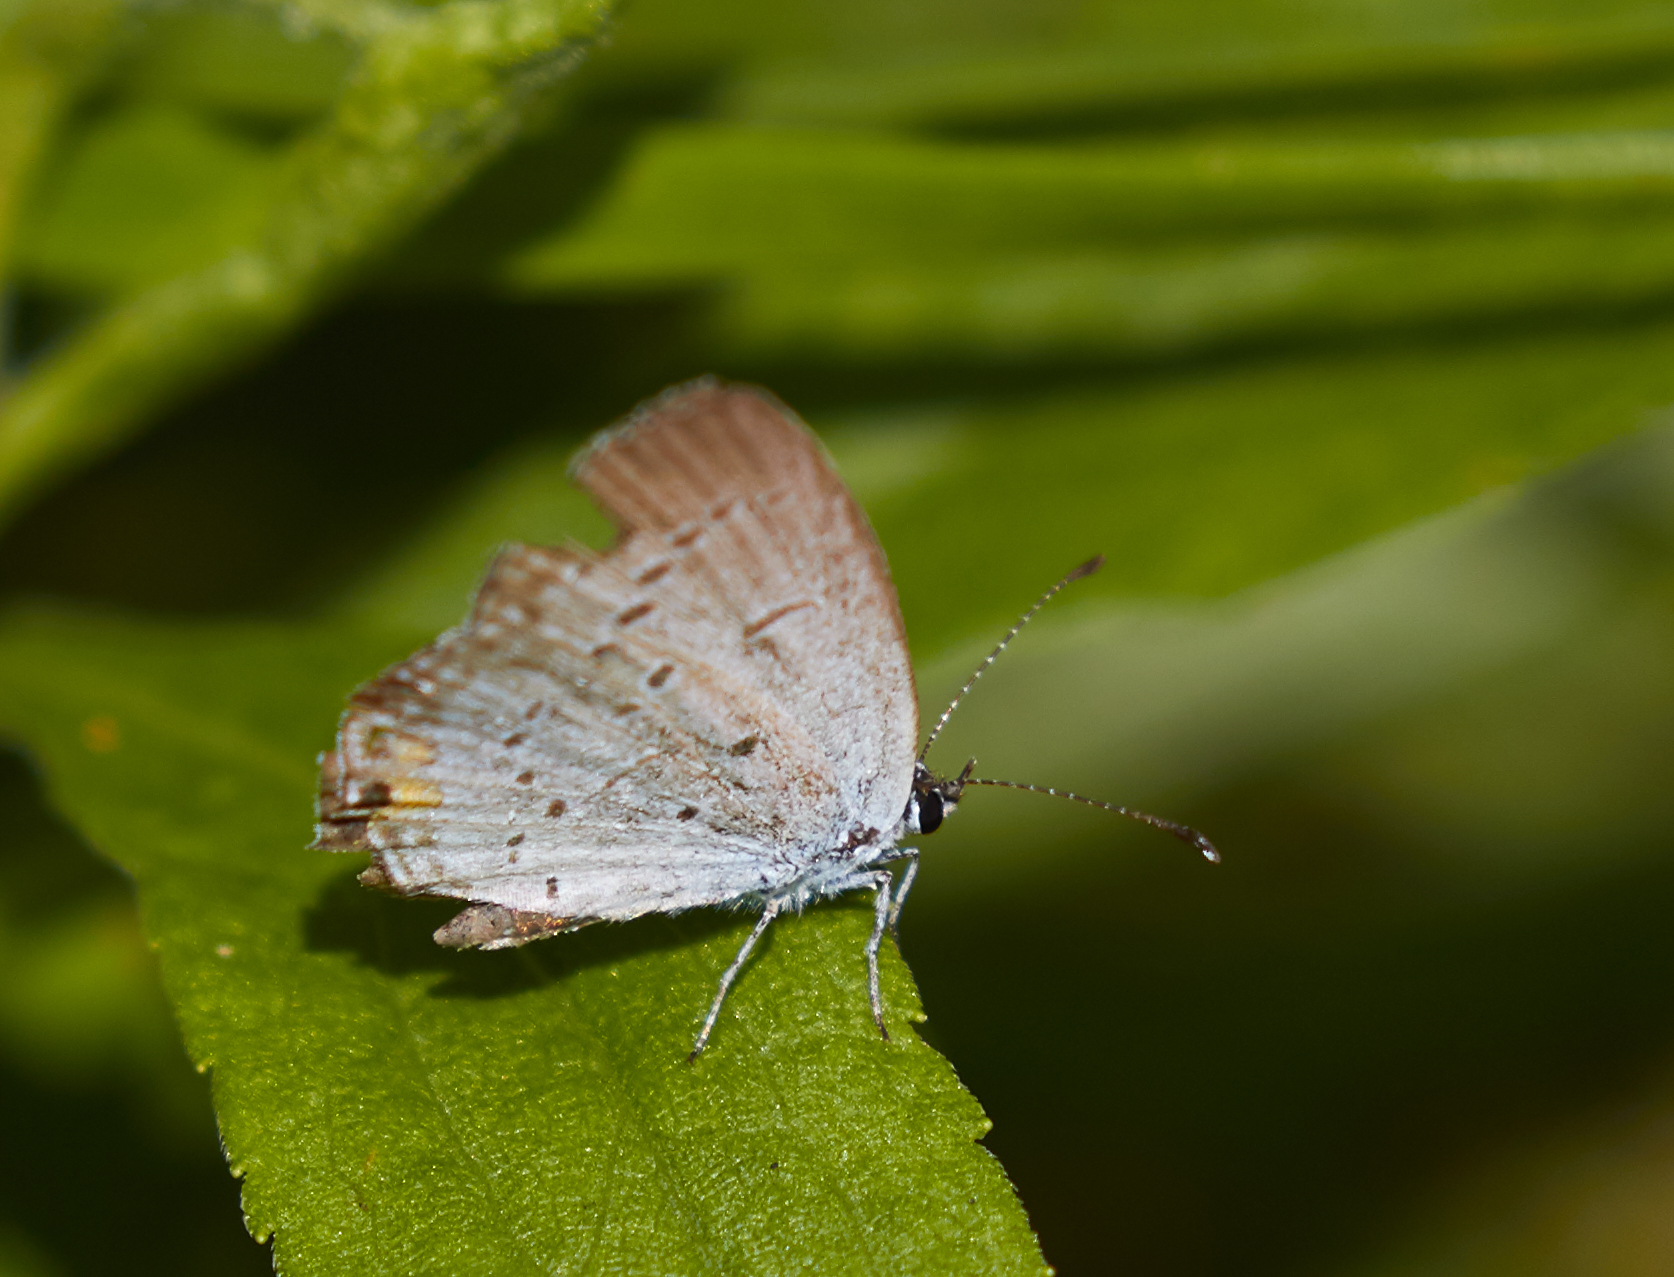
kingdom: Animalia
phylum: Arthropoda
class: Insecta
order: Lepidoptera
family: Lycaenidae
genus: Elkalyce
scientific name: Elkalyce comyntas
